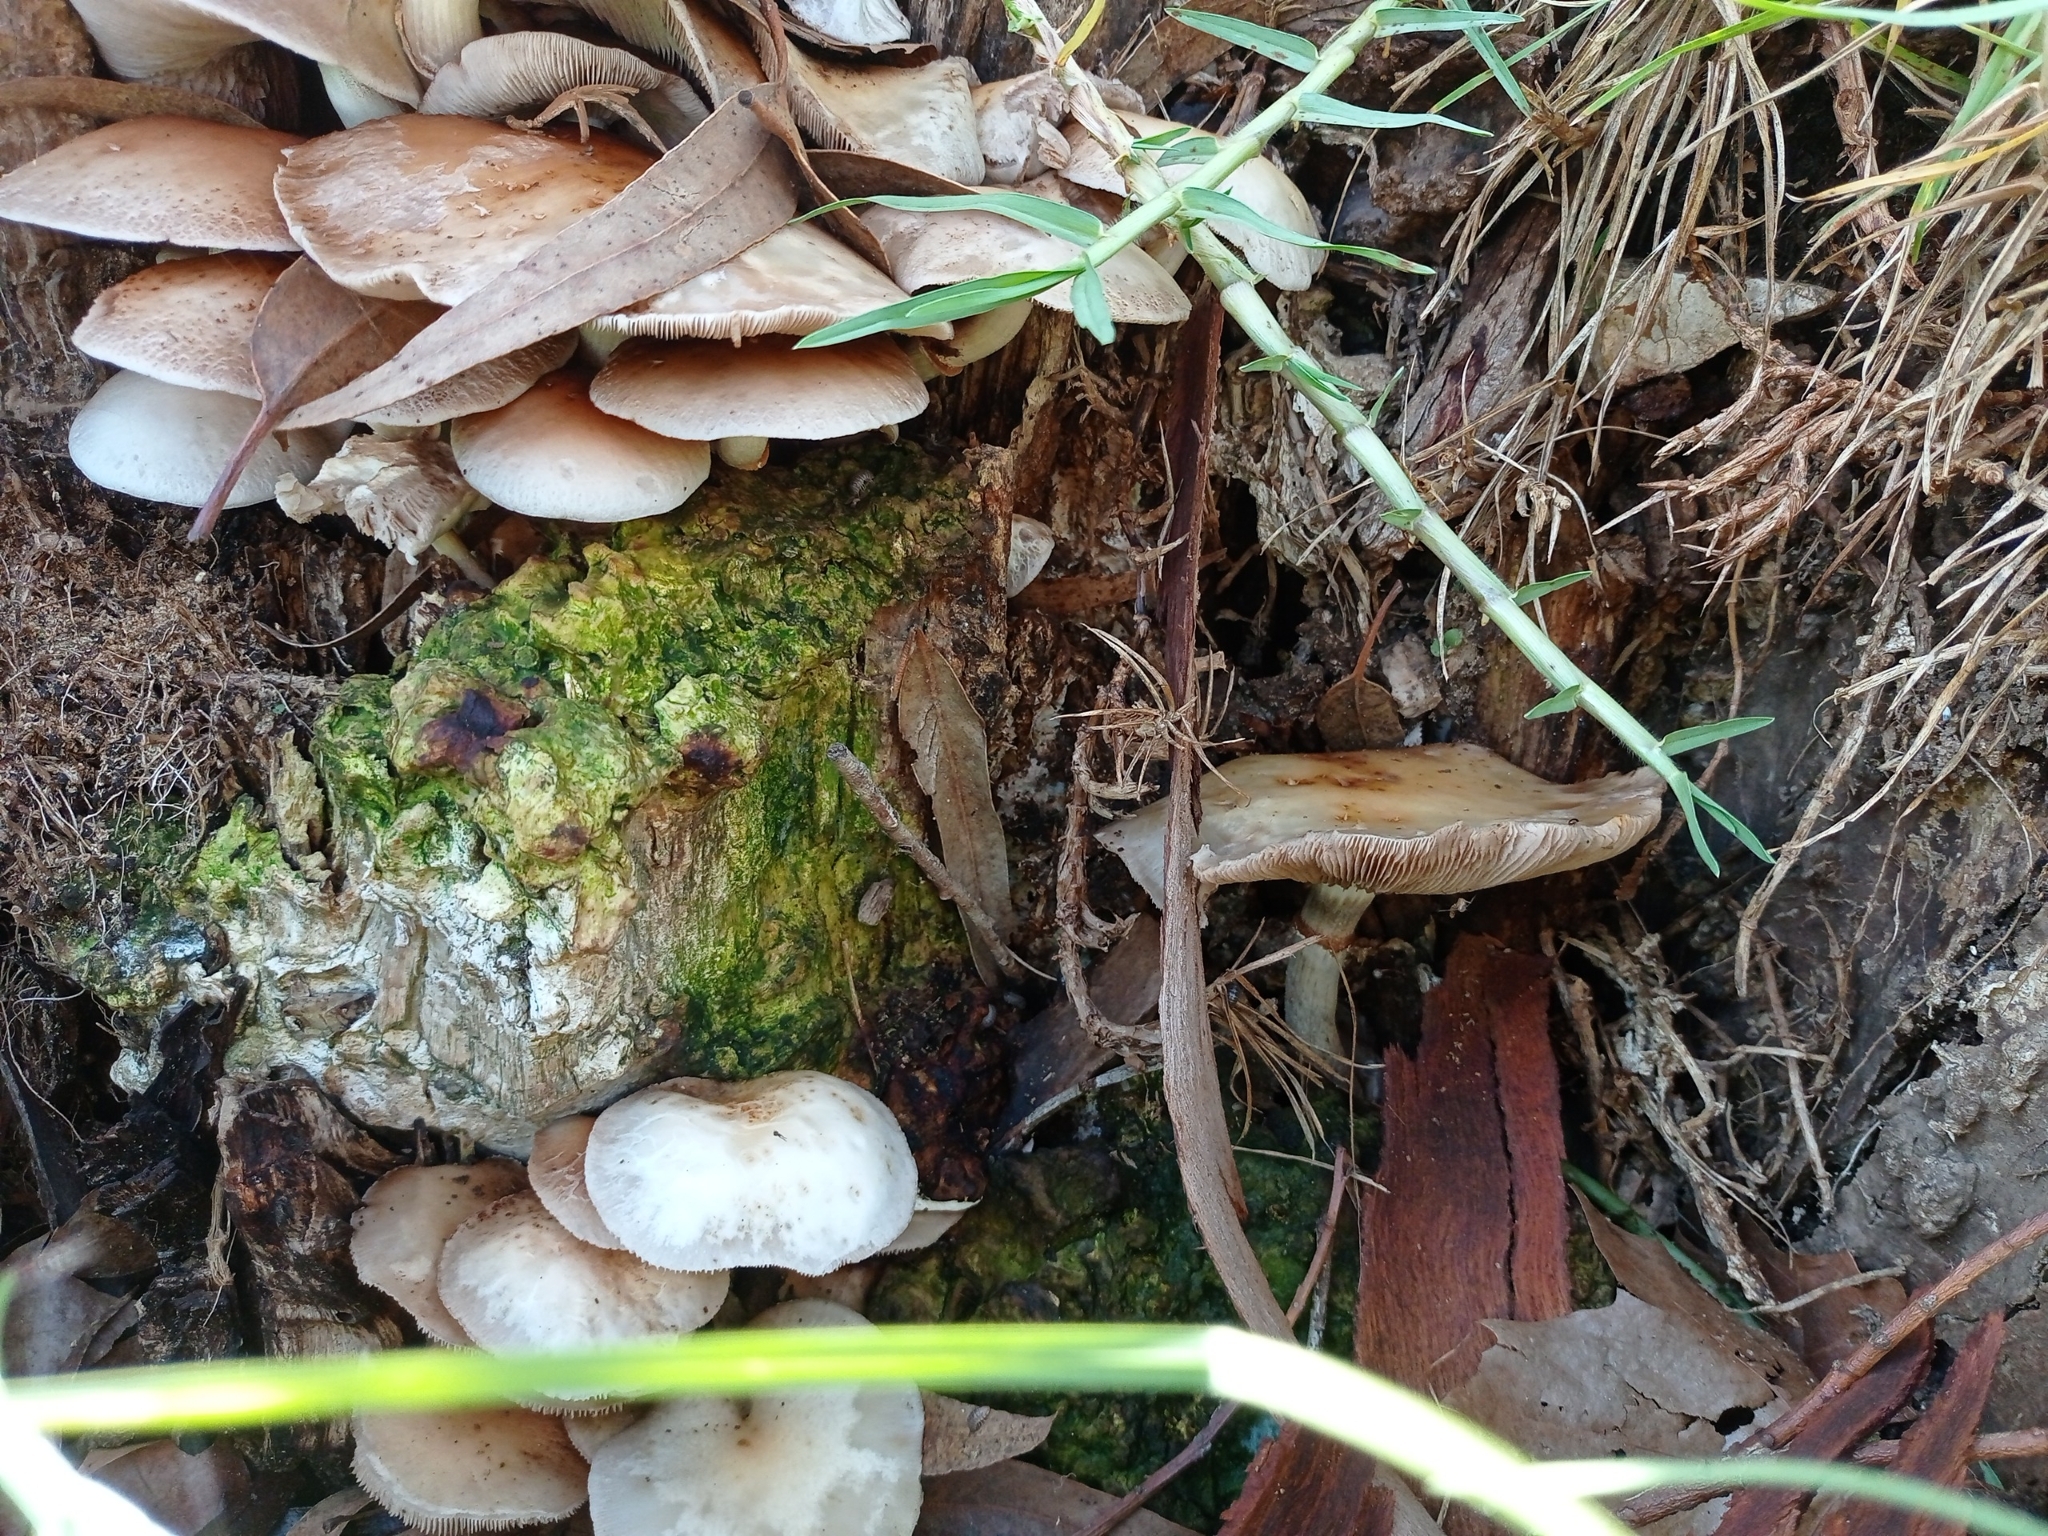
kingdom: Fungi
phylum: Basidiomycota
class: Agaricomycetes
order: Agaricales
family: Tubariaceae
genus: Cyclocybe
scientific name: Cyclocybe cylindracea
